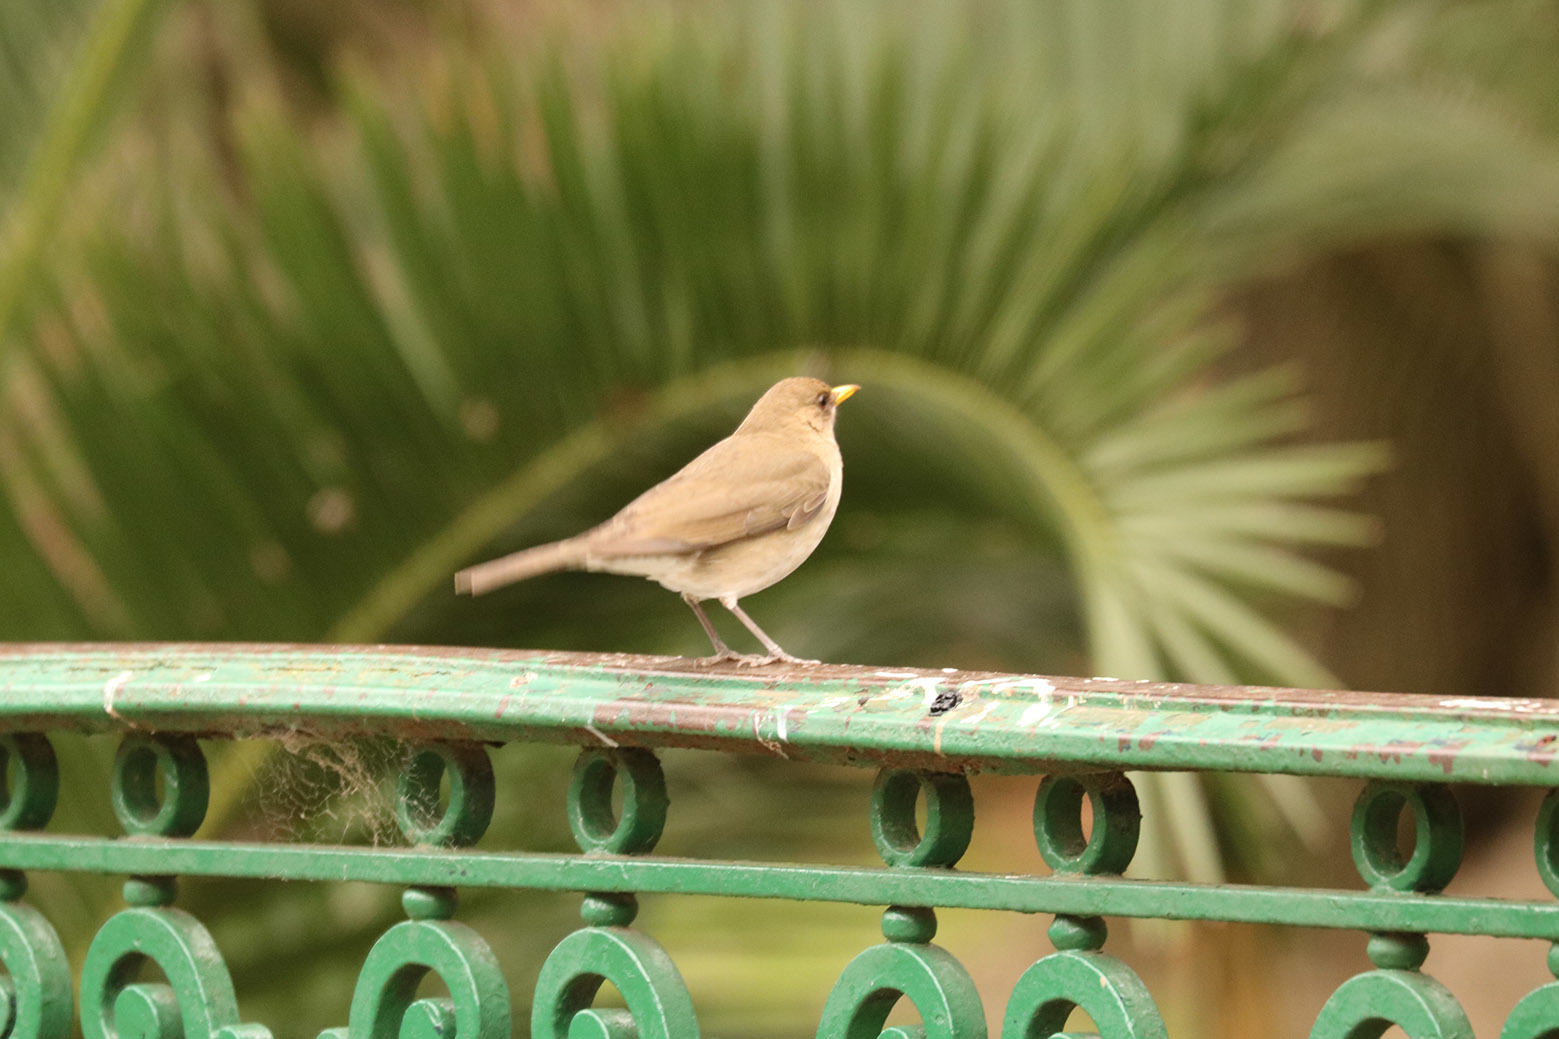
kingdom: Animalia
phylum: Chordata
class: Aves
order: Passeriformes
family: Turdidae
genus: Turdus
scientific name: Turdus amaurochalinus
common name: Creamy-bellied thrush
